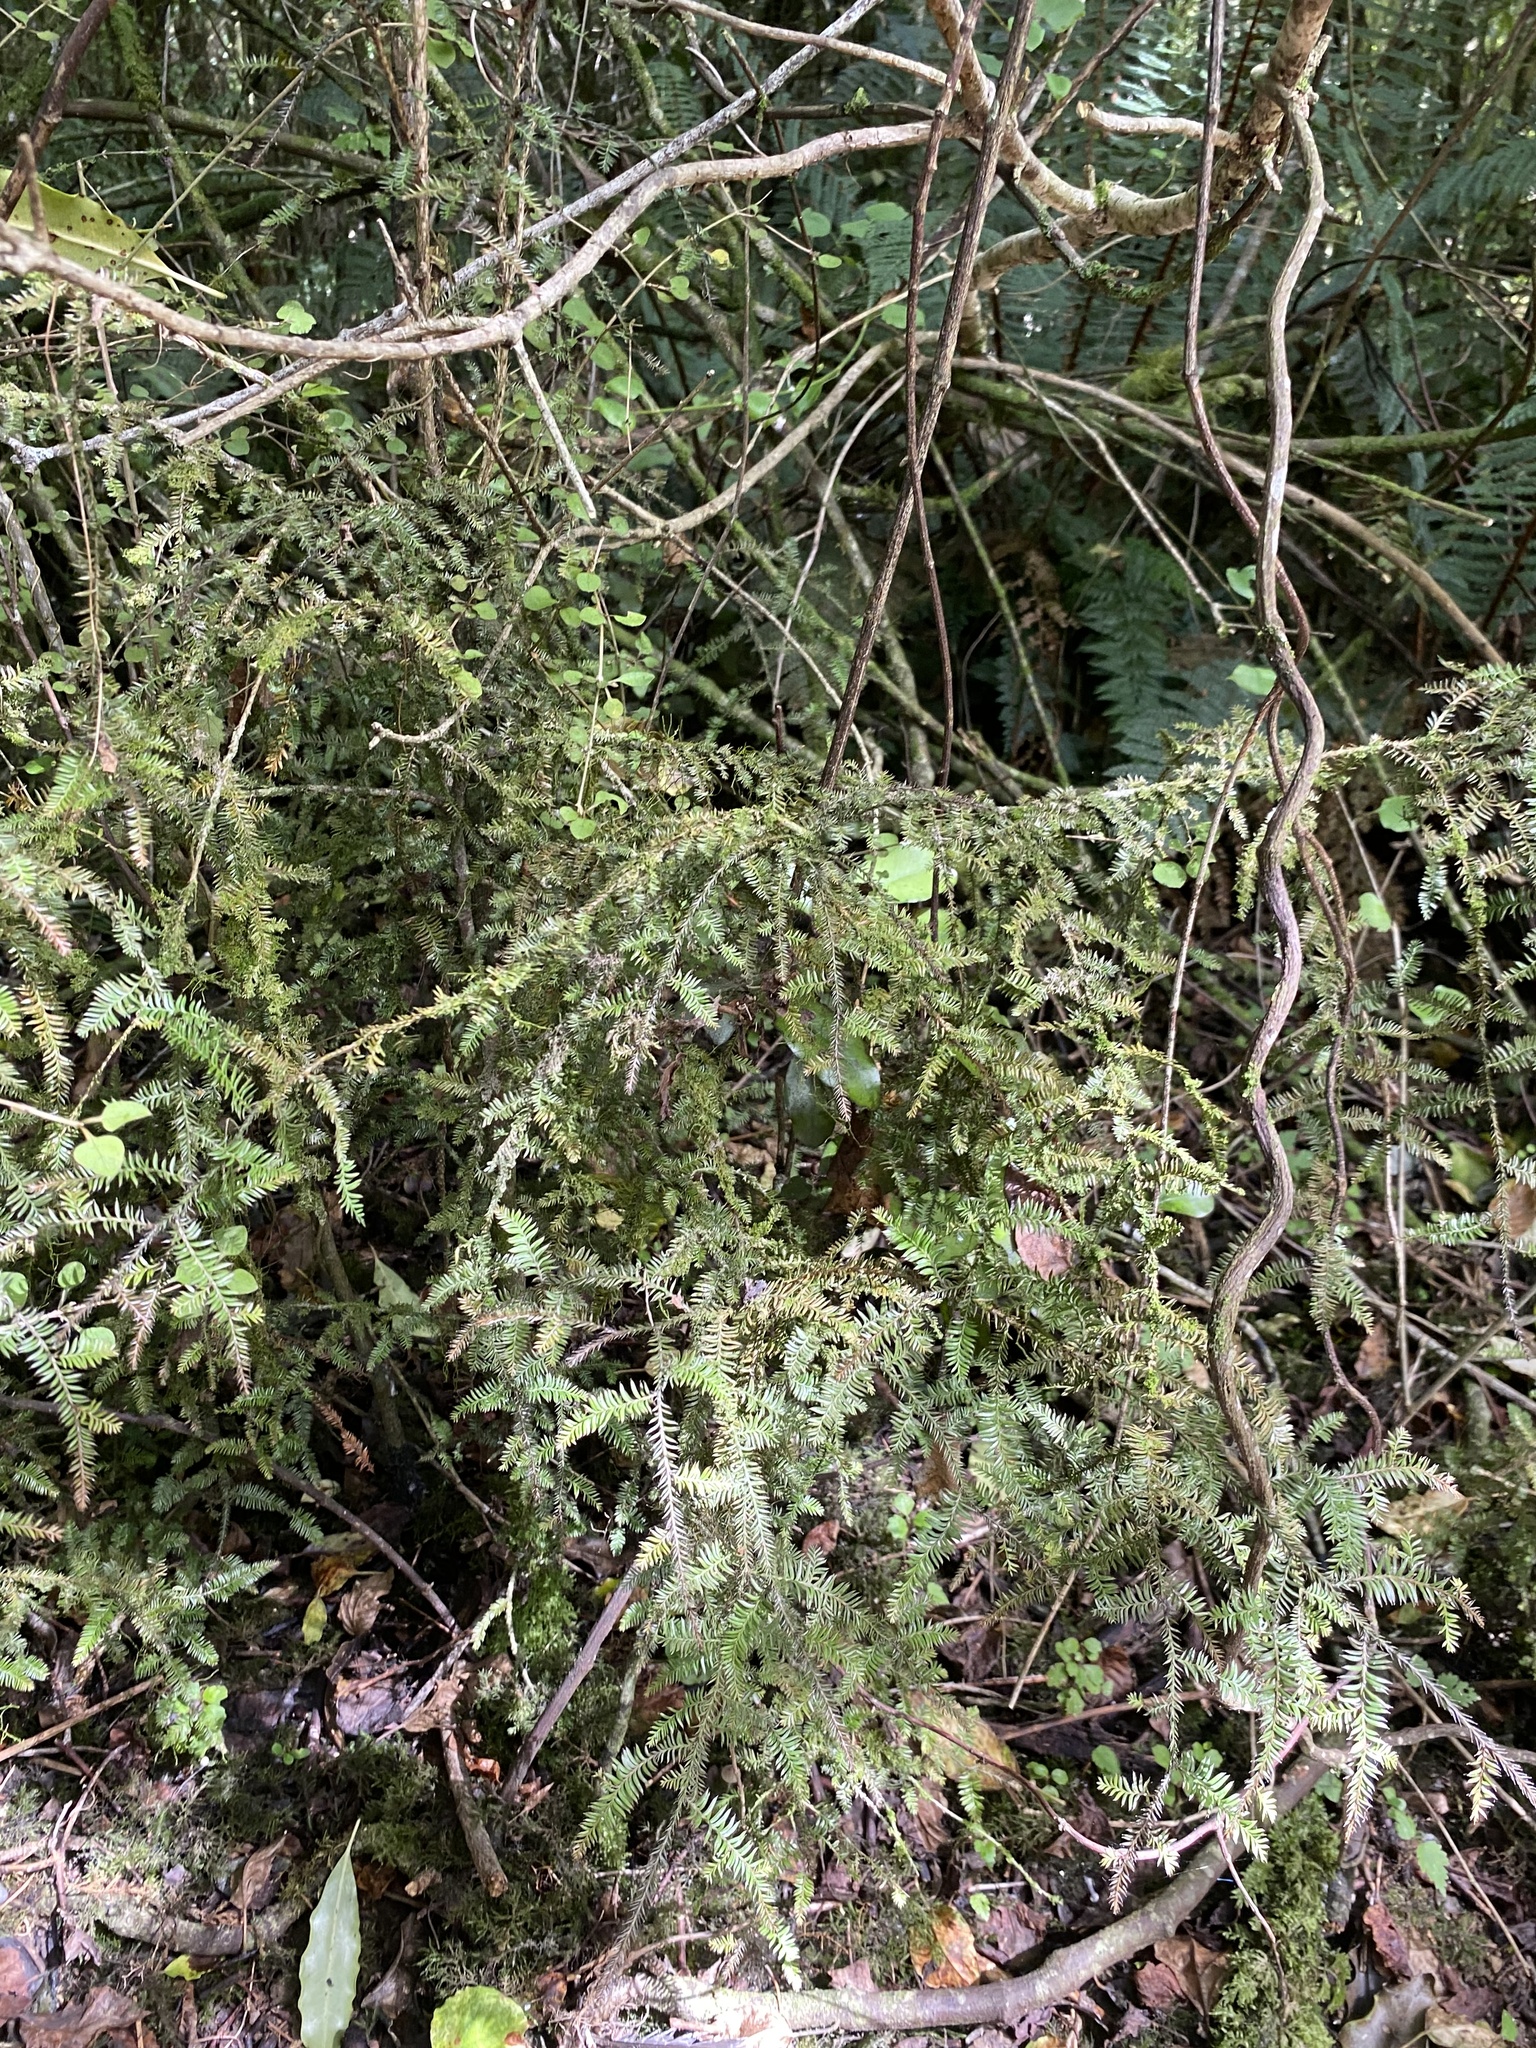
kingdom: Plantae
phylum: Tracheophyta
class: Pinopsida
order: Pinales
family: Podocarpaceae
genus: Dacrycarpus
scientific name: Dacrycarpus dacrydioides
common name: White pine
